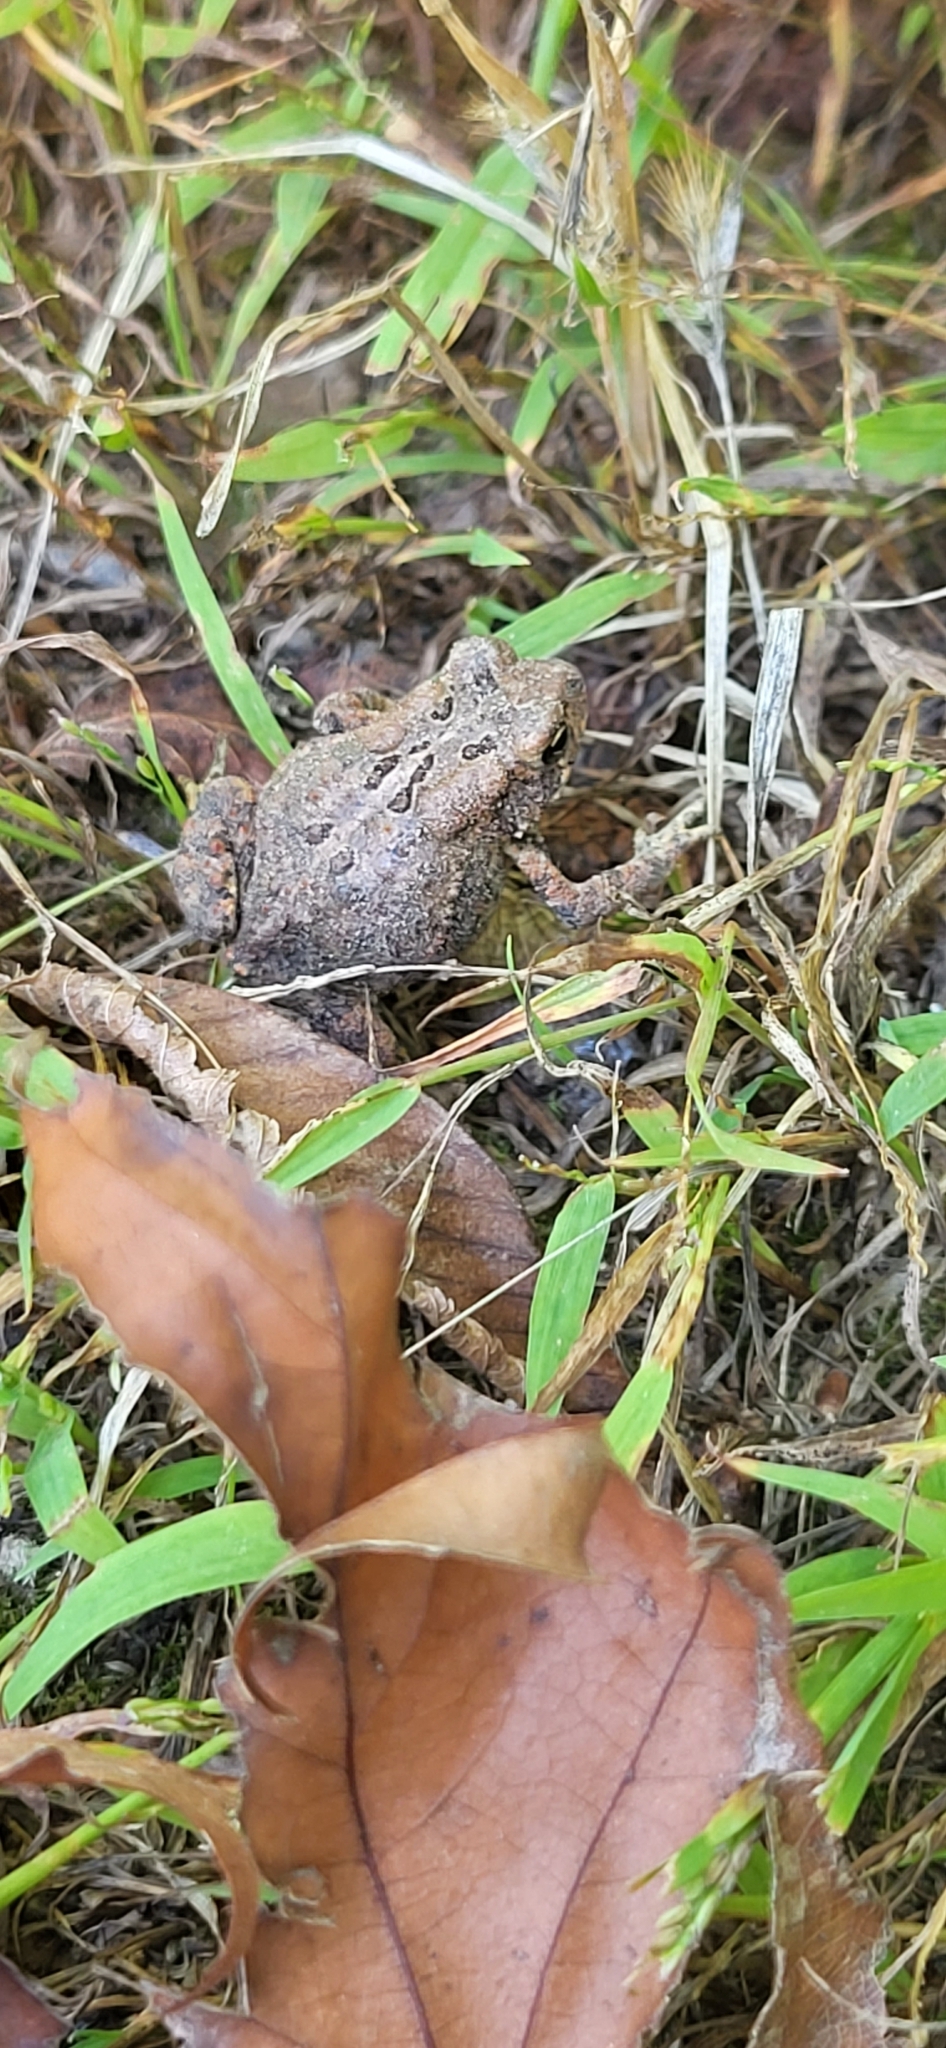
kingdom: Animalia
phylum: Chordata
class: Amphibia
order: Anura
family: Bufonidae
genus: Anaxyrus
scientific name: Anaxyrus americanus
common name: American toad
